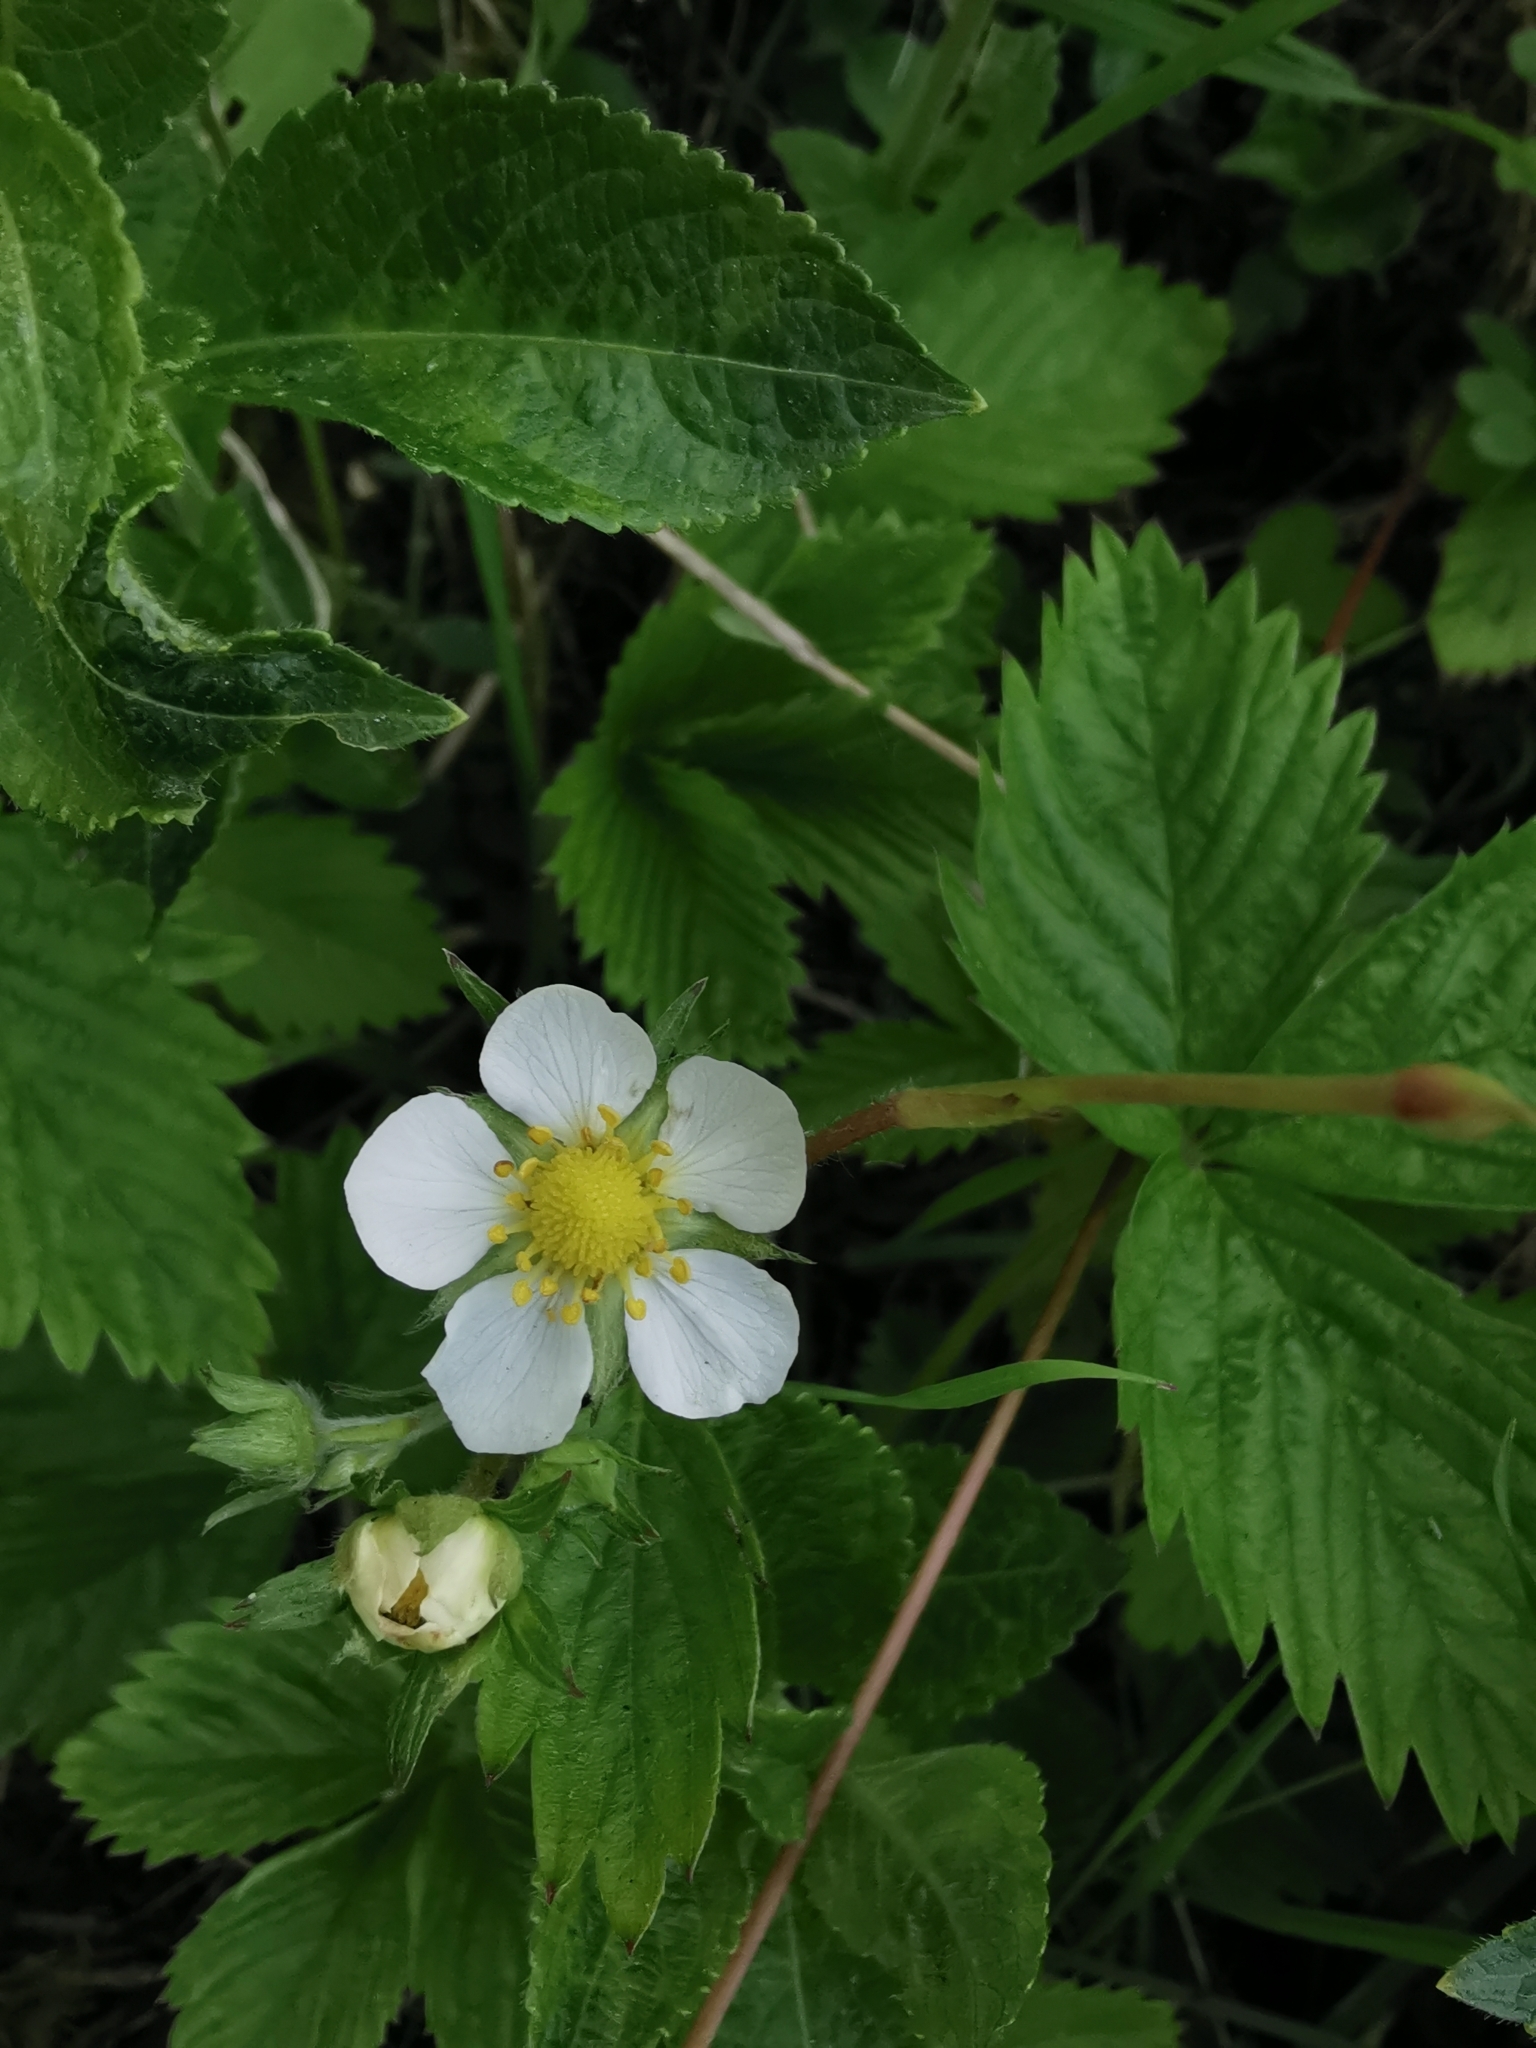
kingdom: Plantae
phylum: Tracheophyta
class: Magnoliopsida
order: Rosales
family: Rosaceae
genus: Fragaria
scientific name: Fragaria vesca
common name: Wild strawberry
